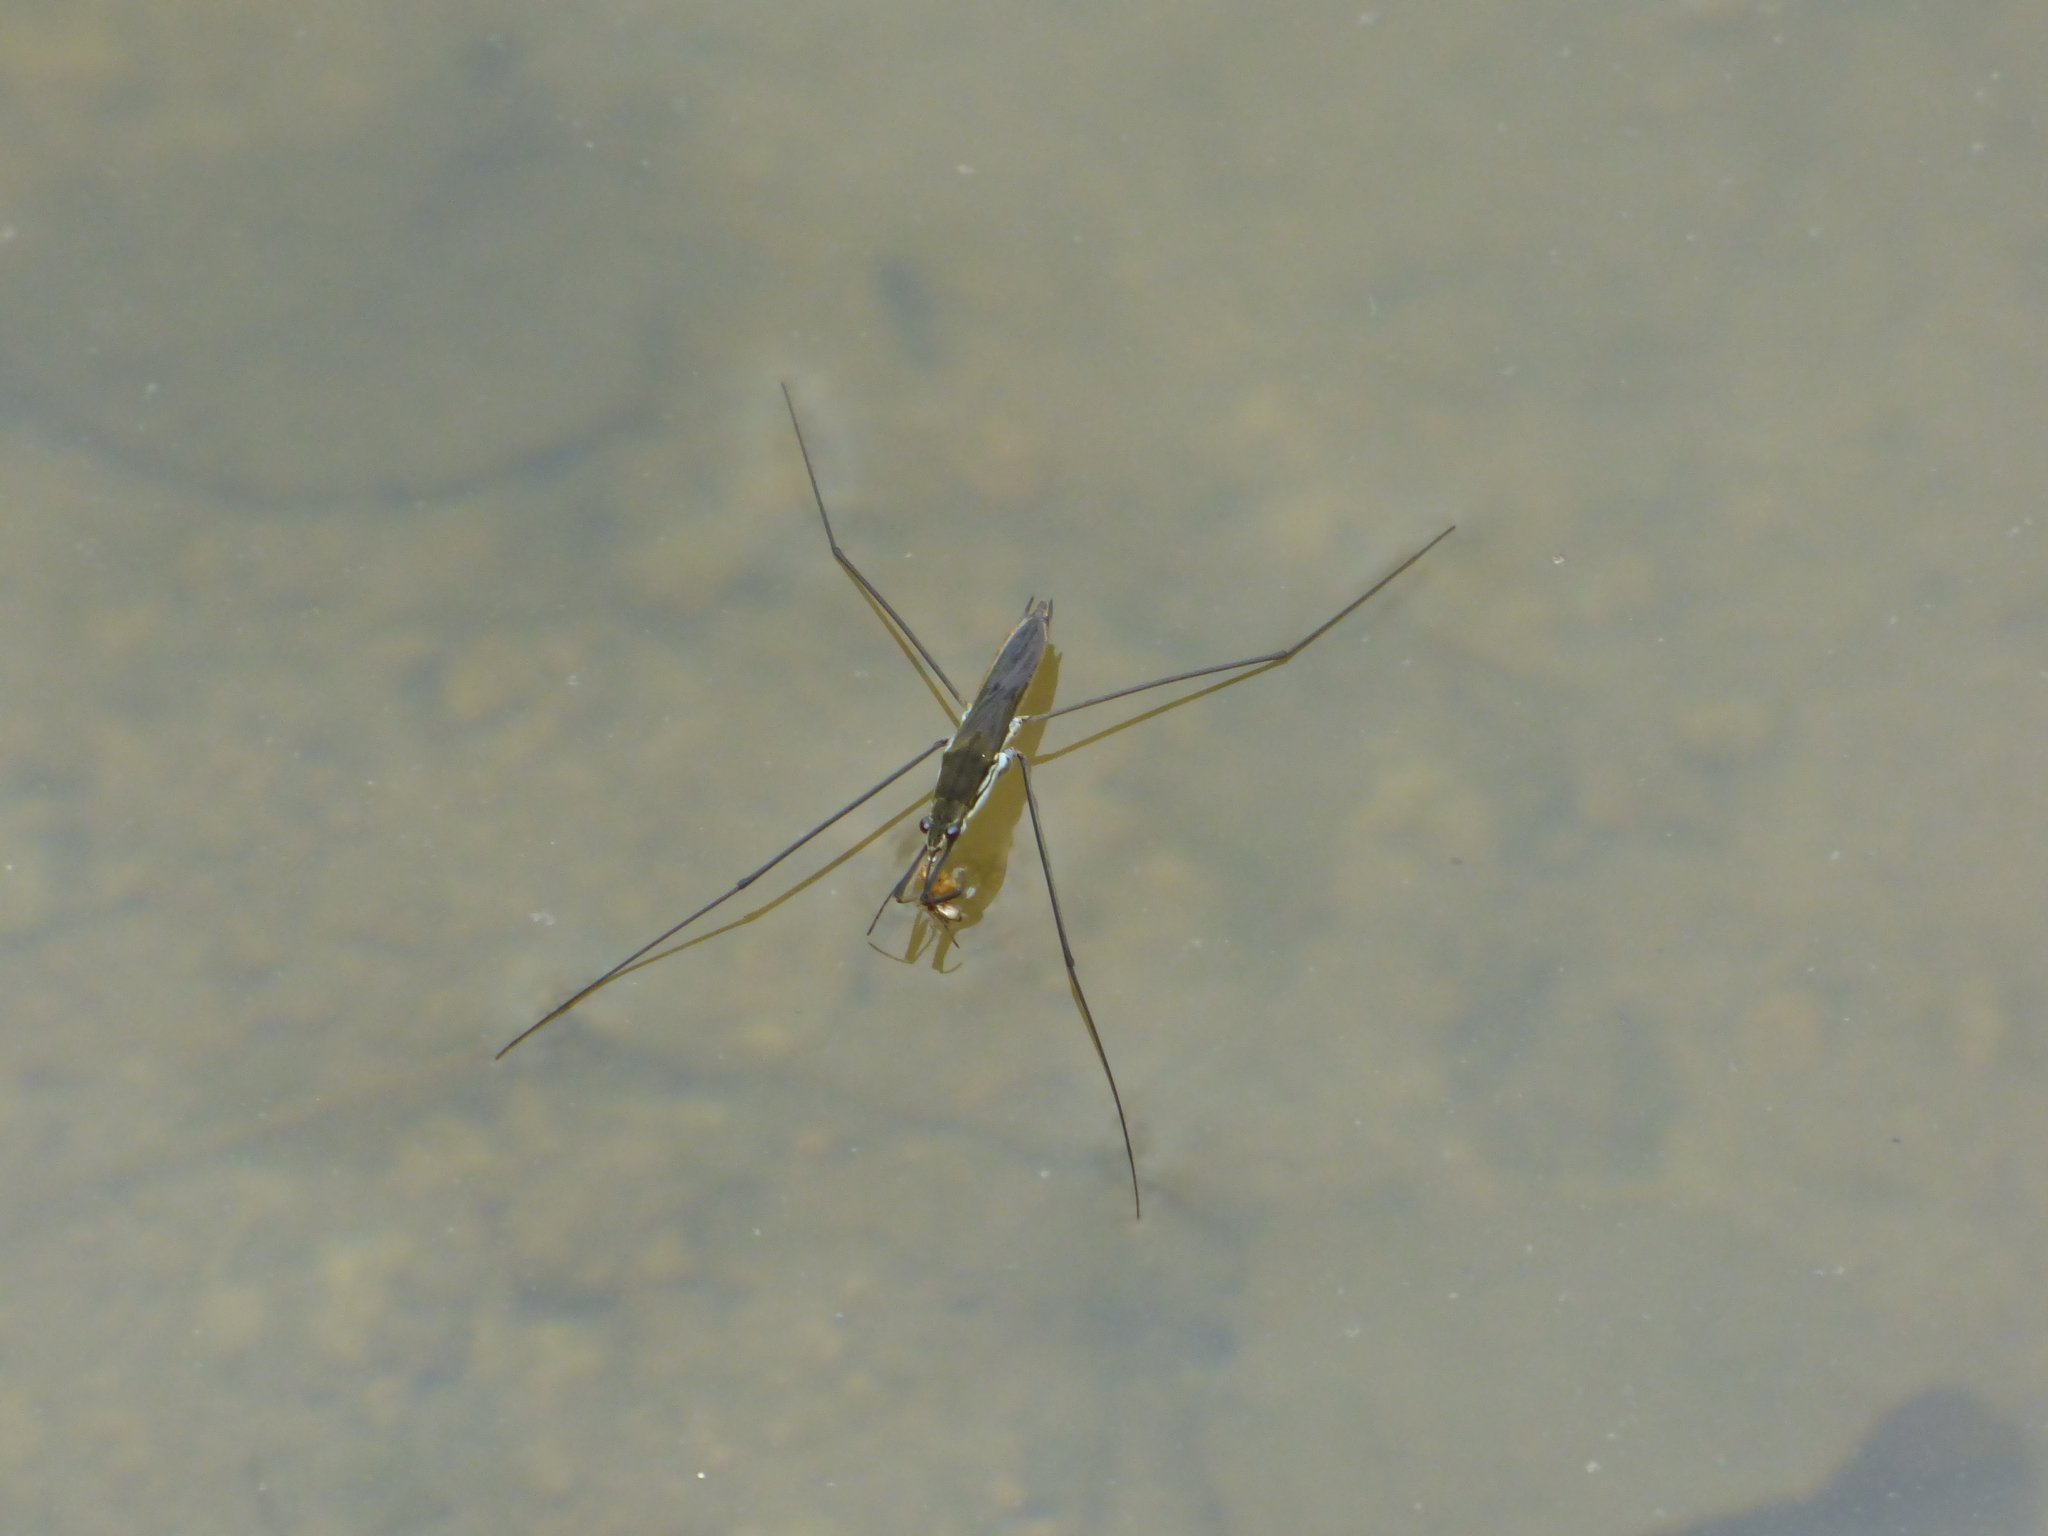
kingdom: Animalia
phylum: Arthropoda
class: Insecta
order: Hemiptera
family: Gerridae
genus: Aquarius
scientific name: Aquarius paludum
